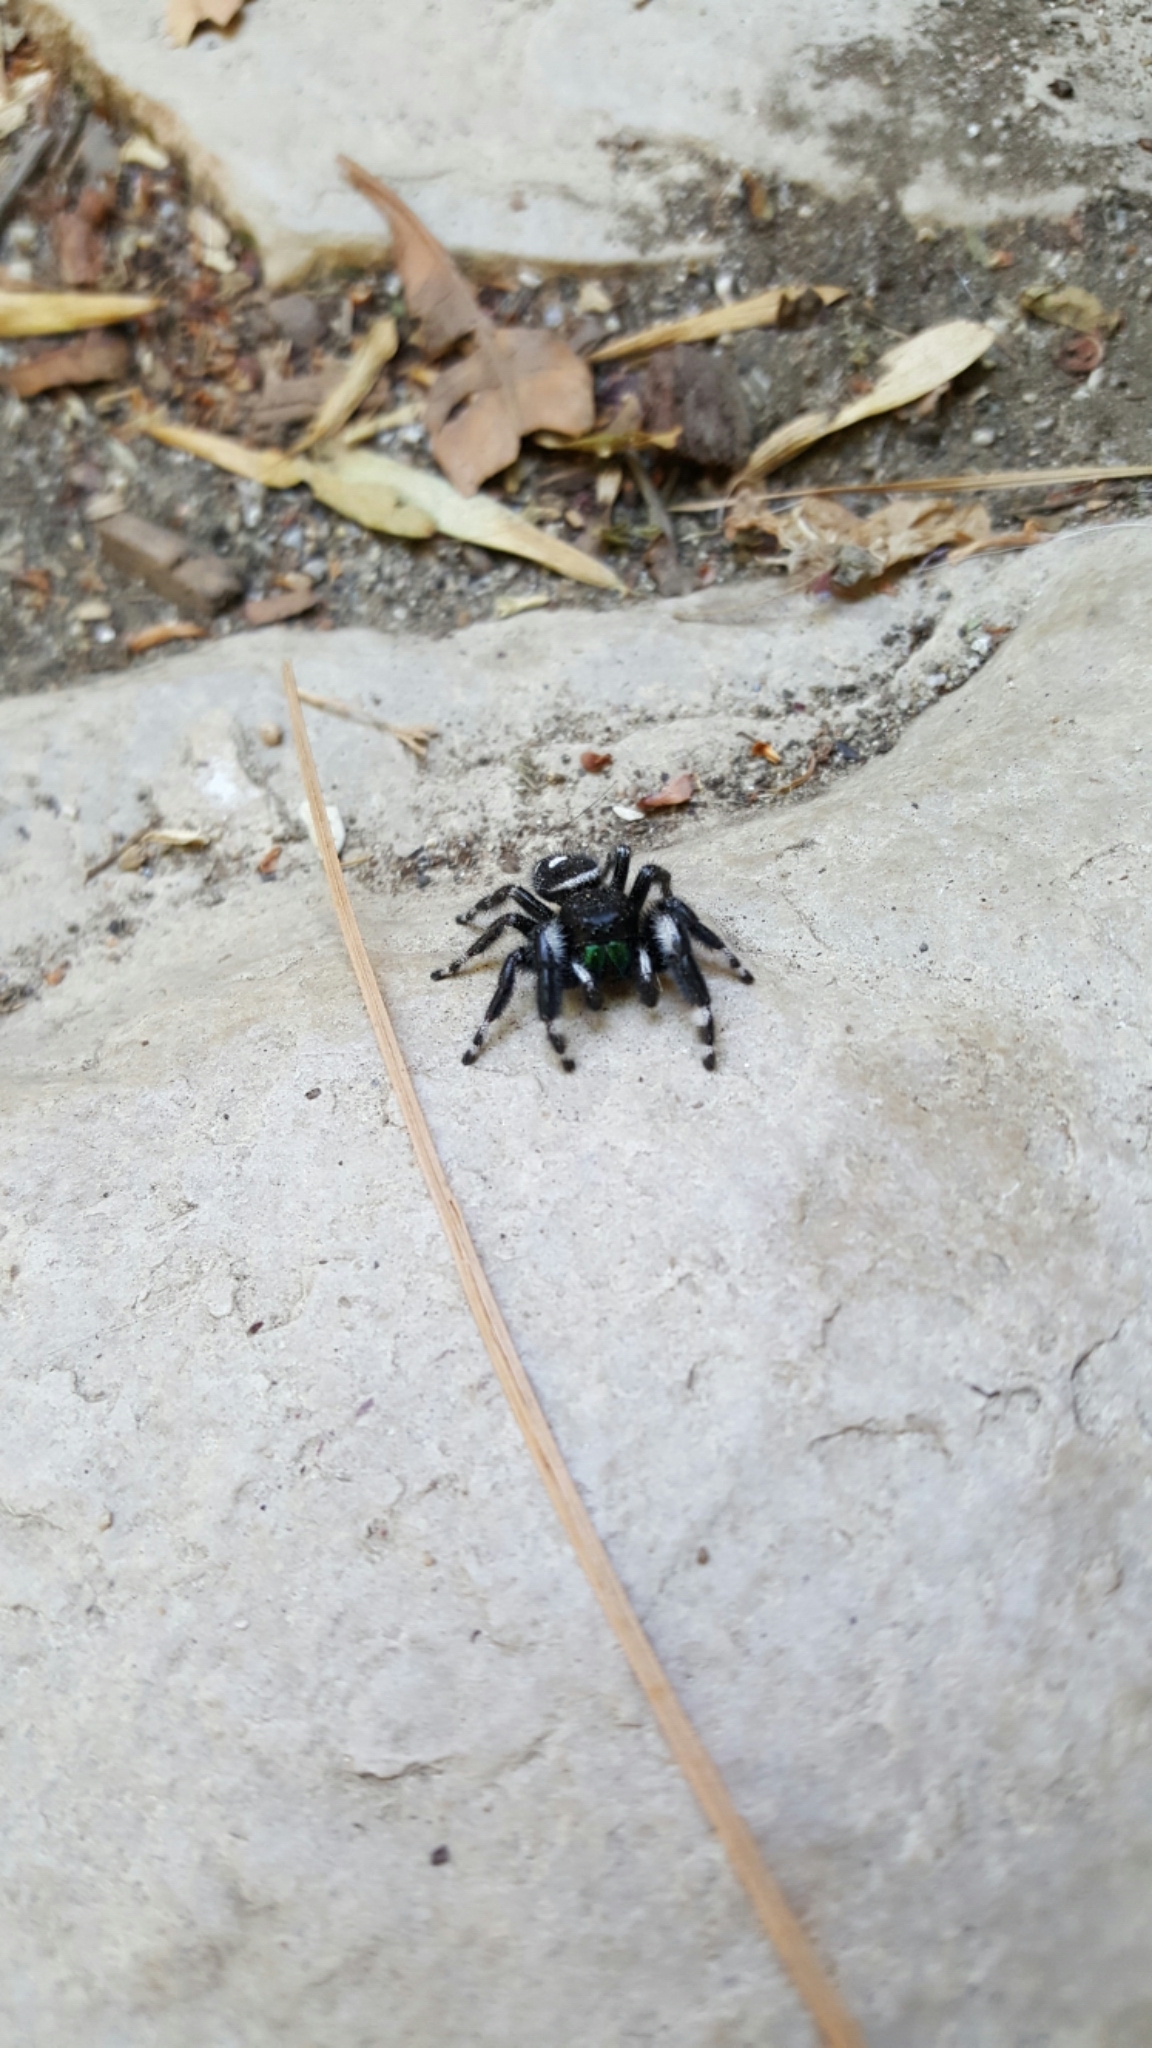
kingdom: Animalia
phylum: Arthropoda
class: Arachnida
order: Araneae
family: Salticidae
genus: Phidippus
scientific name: Phidippus audax
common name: Bold jumper
